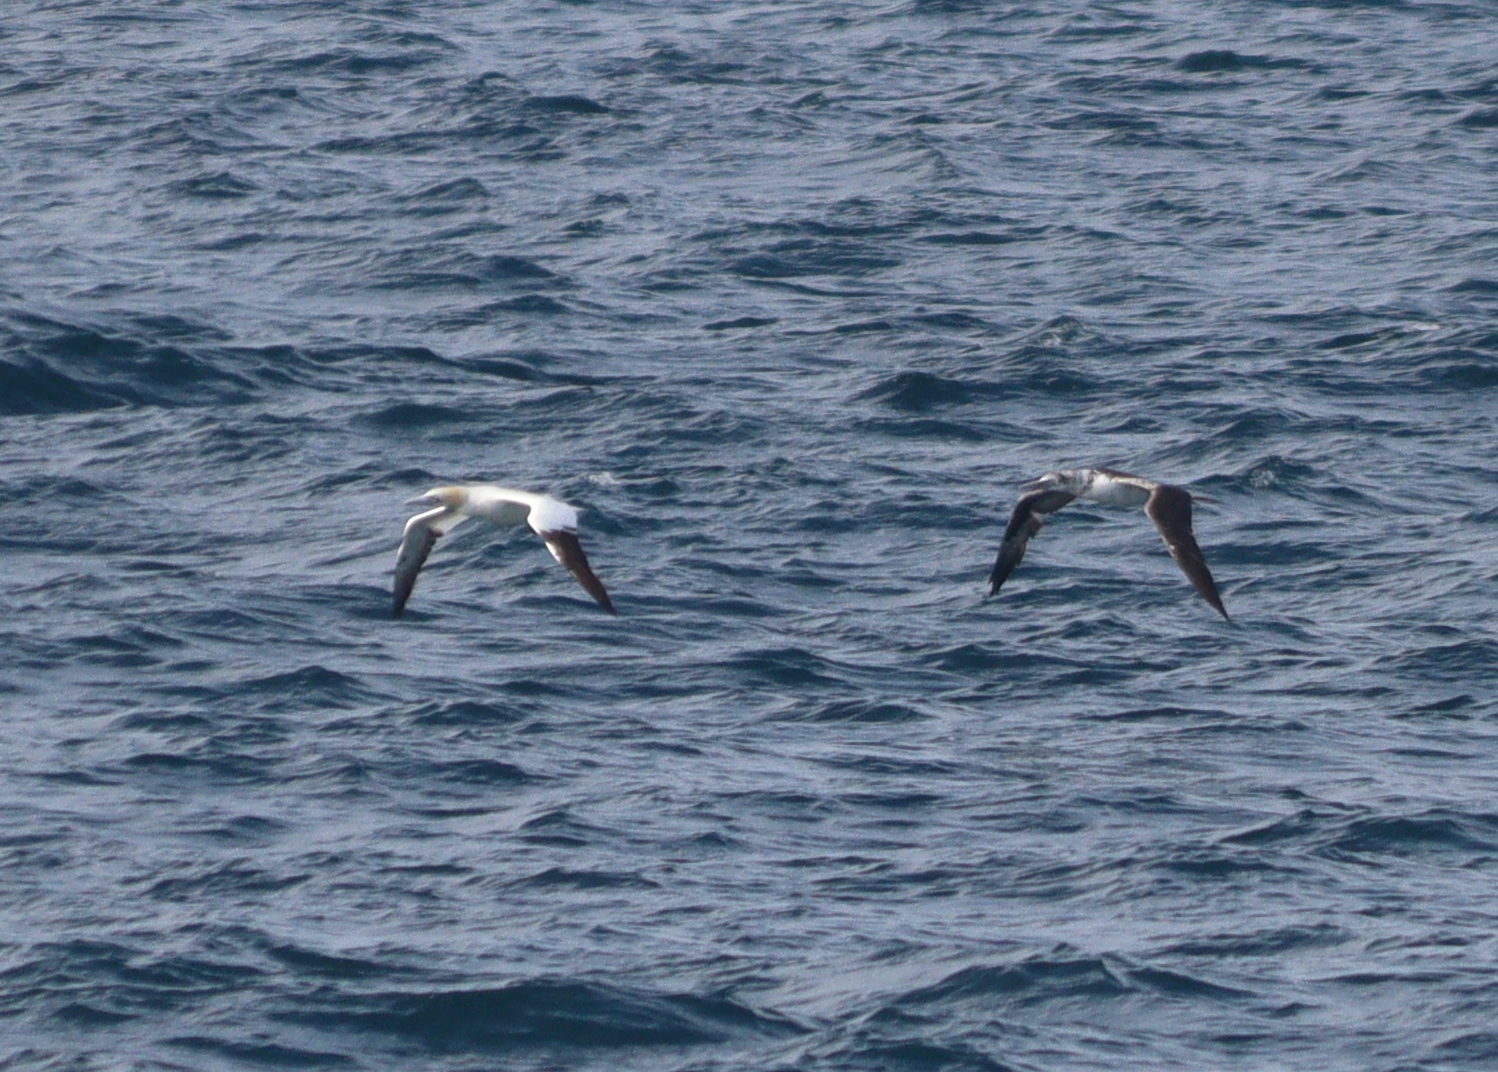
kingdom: Animalia
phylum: Chordata
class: Aves
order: Suliformes
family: Sulidae
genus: Morus
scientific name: Morus bassanus
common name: Northern gannet
